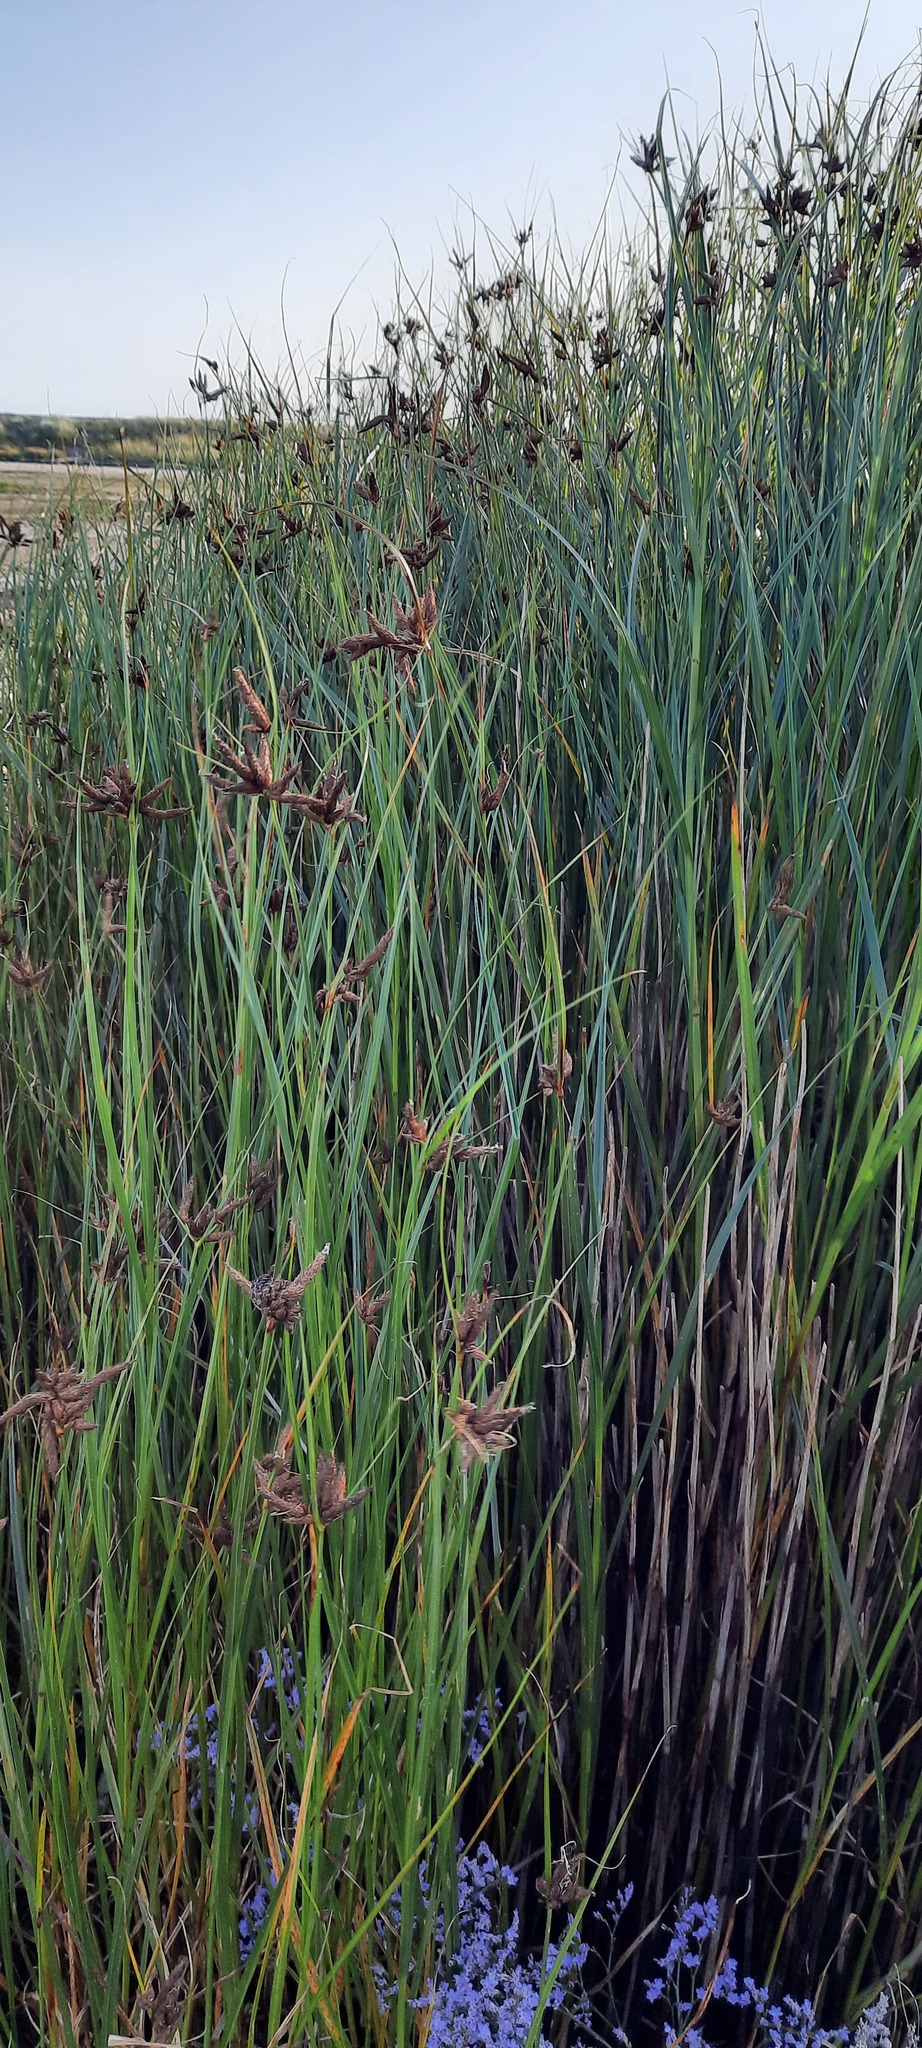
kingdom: Plantae
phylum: Tracheophyta
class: Liliopsida
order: Poales
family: Cyperaceae
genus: Bolboschoenus
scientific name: Bolboschoenus maritimus
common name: Sea club-rush
